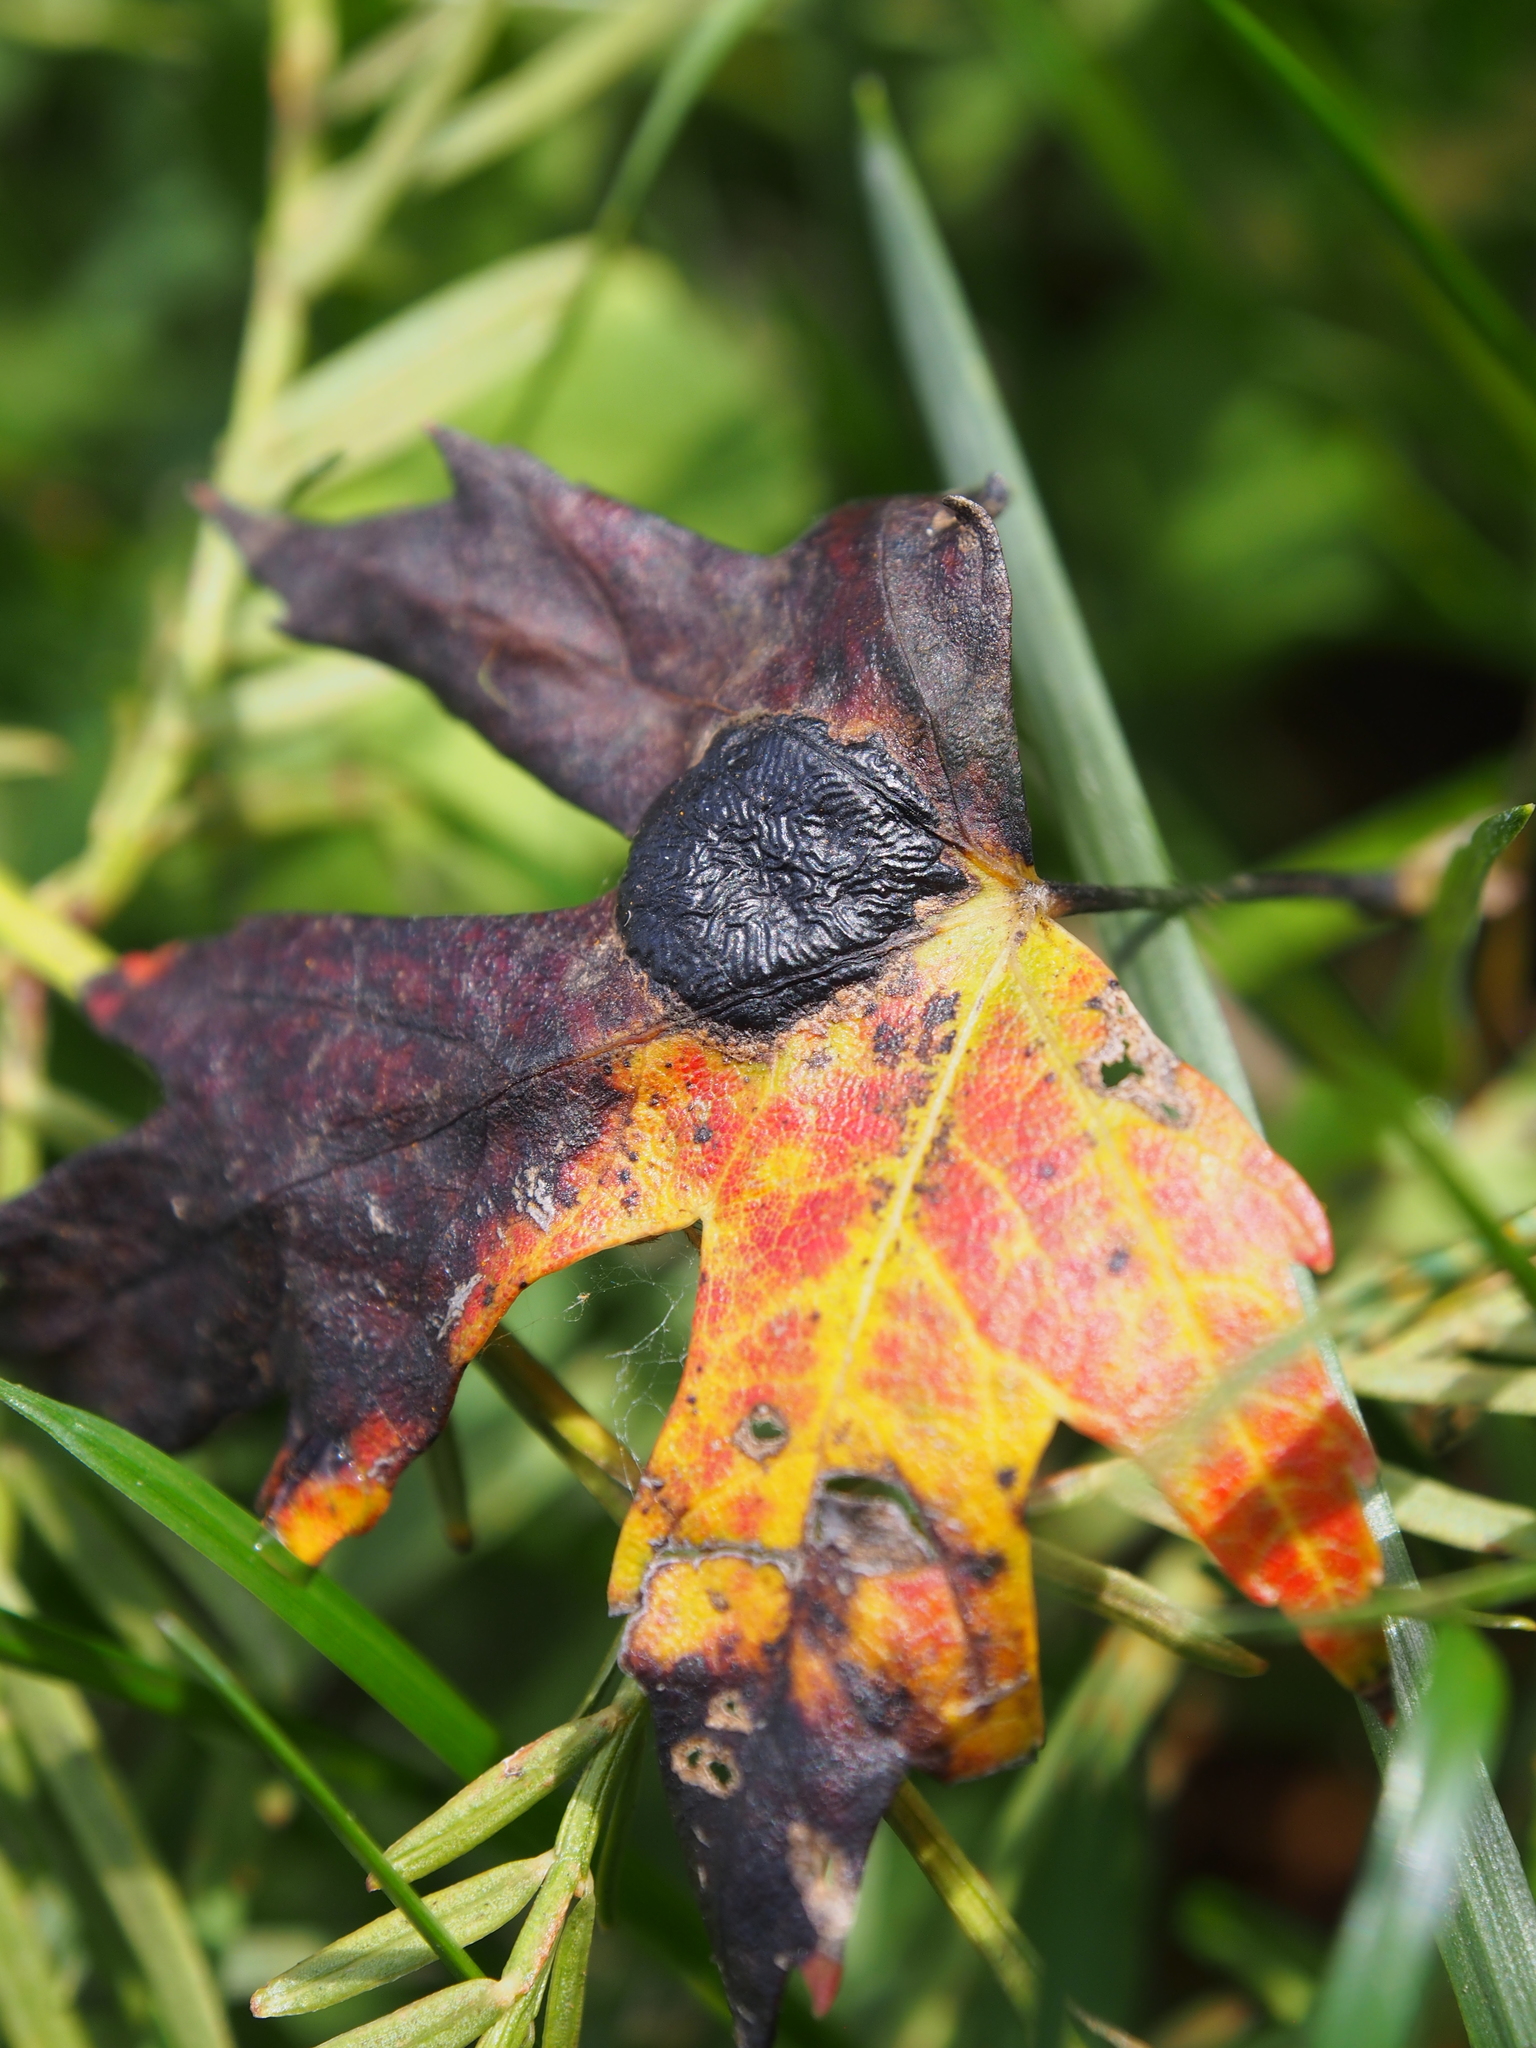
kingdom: Fungi
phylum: Ascomycota
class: Leotiomycetes
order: Rhytismatales
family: Rhytismataceae
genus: Rhytisma
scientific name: Rhytisma americanum
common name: American tar spot
